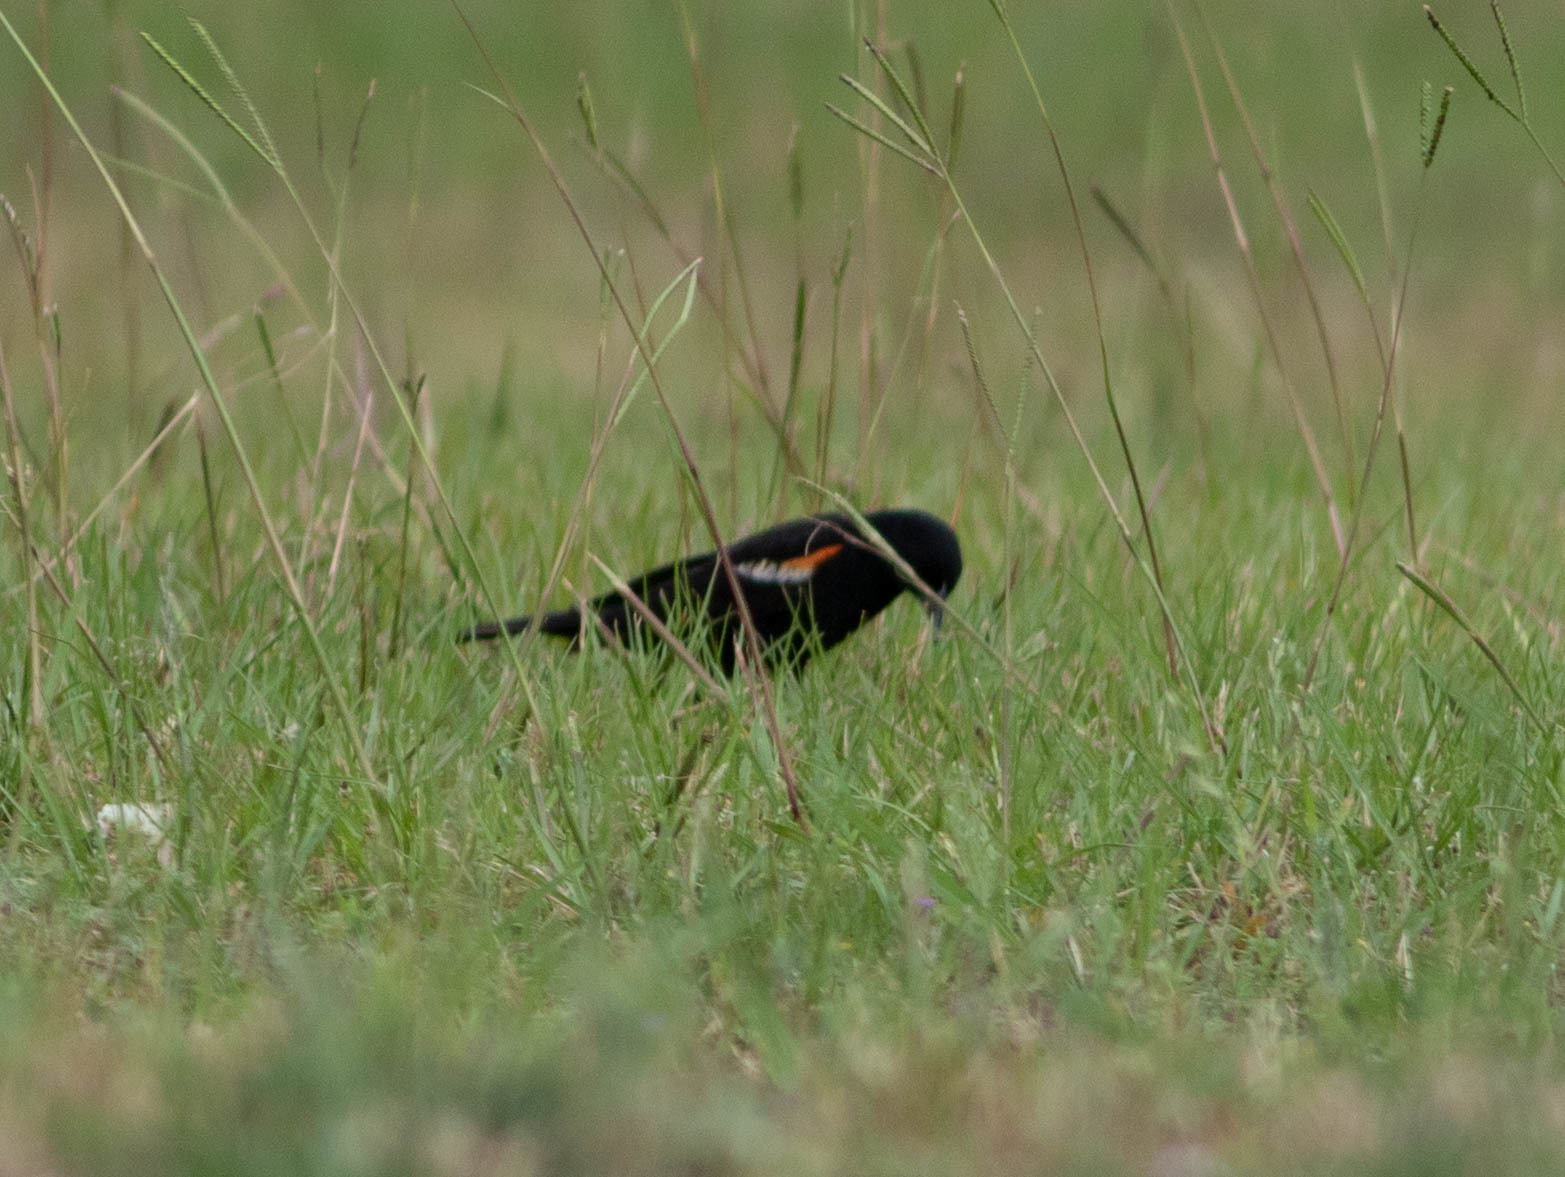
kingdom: Animalia
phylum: Chordata
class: Aves
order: Passeriformes
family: Icteridae
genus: Agelaius
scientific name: Agelaius phoeniceus
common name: Red-winged blackbird
